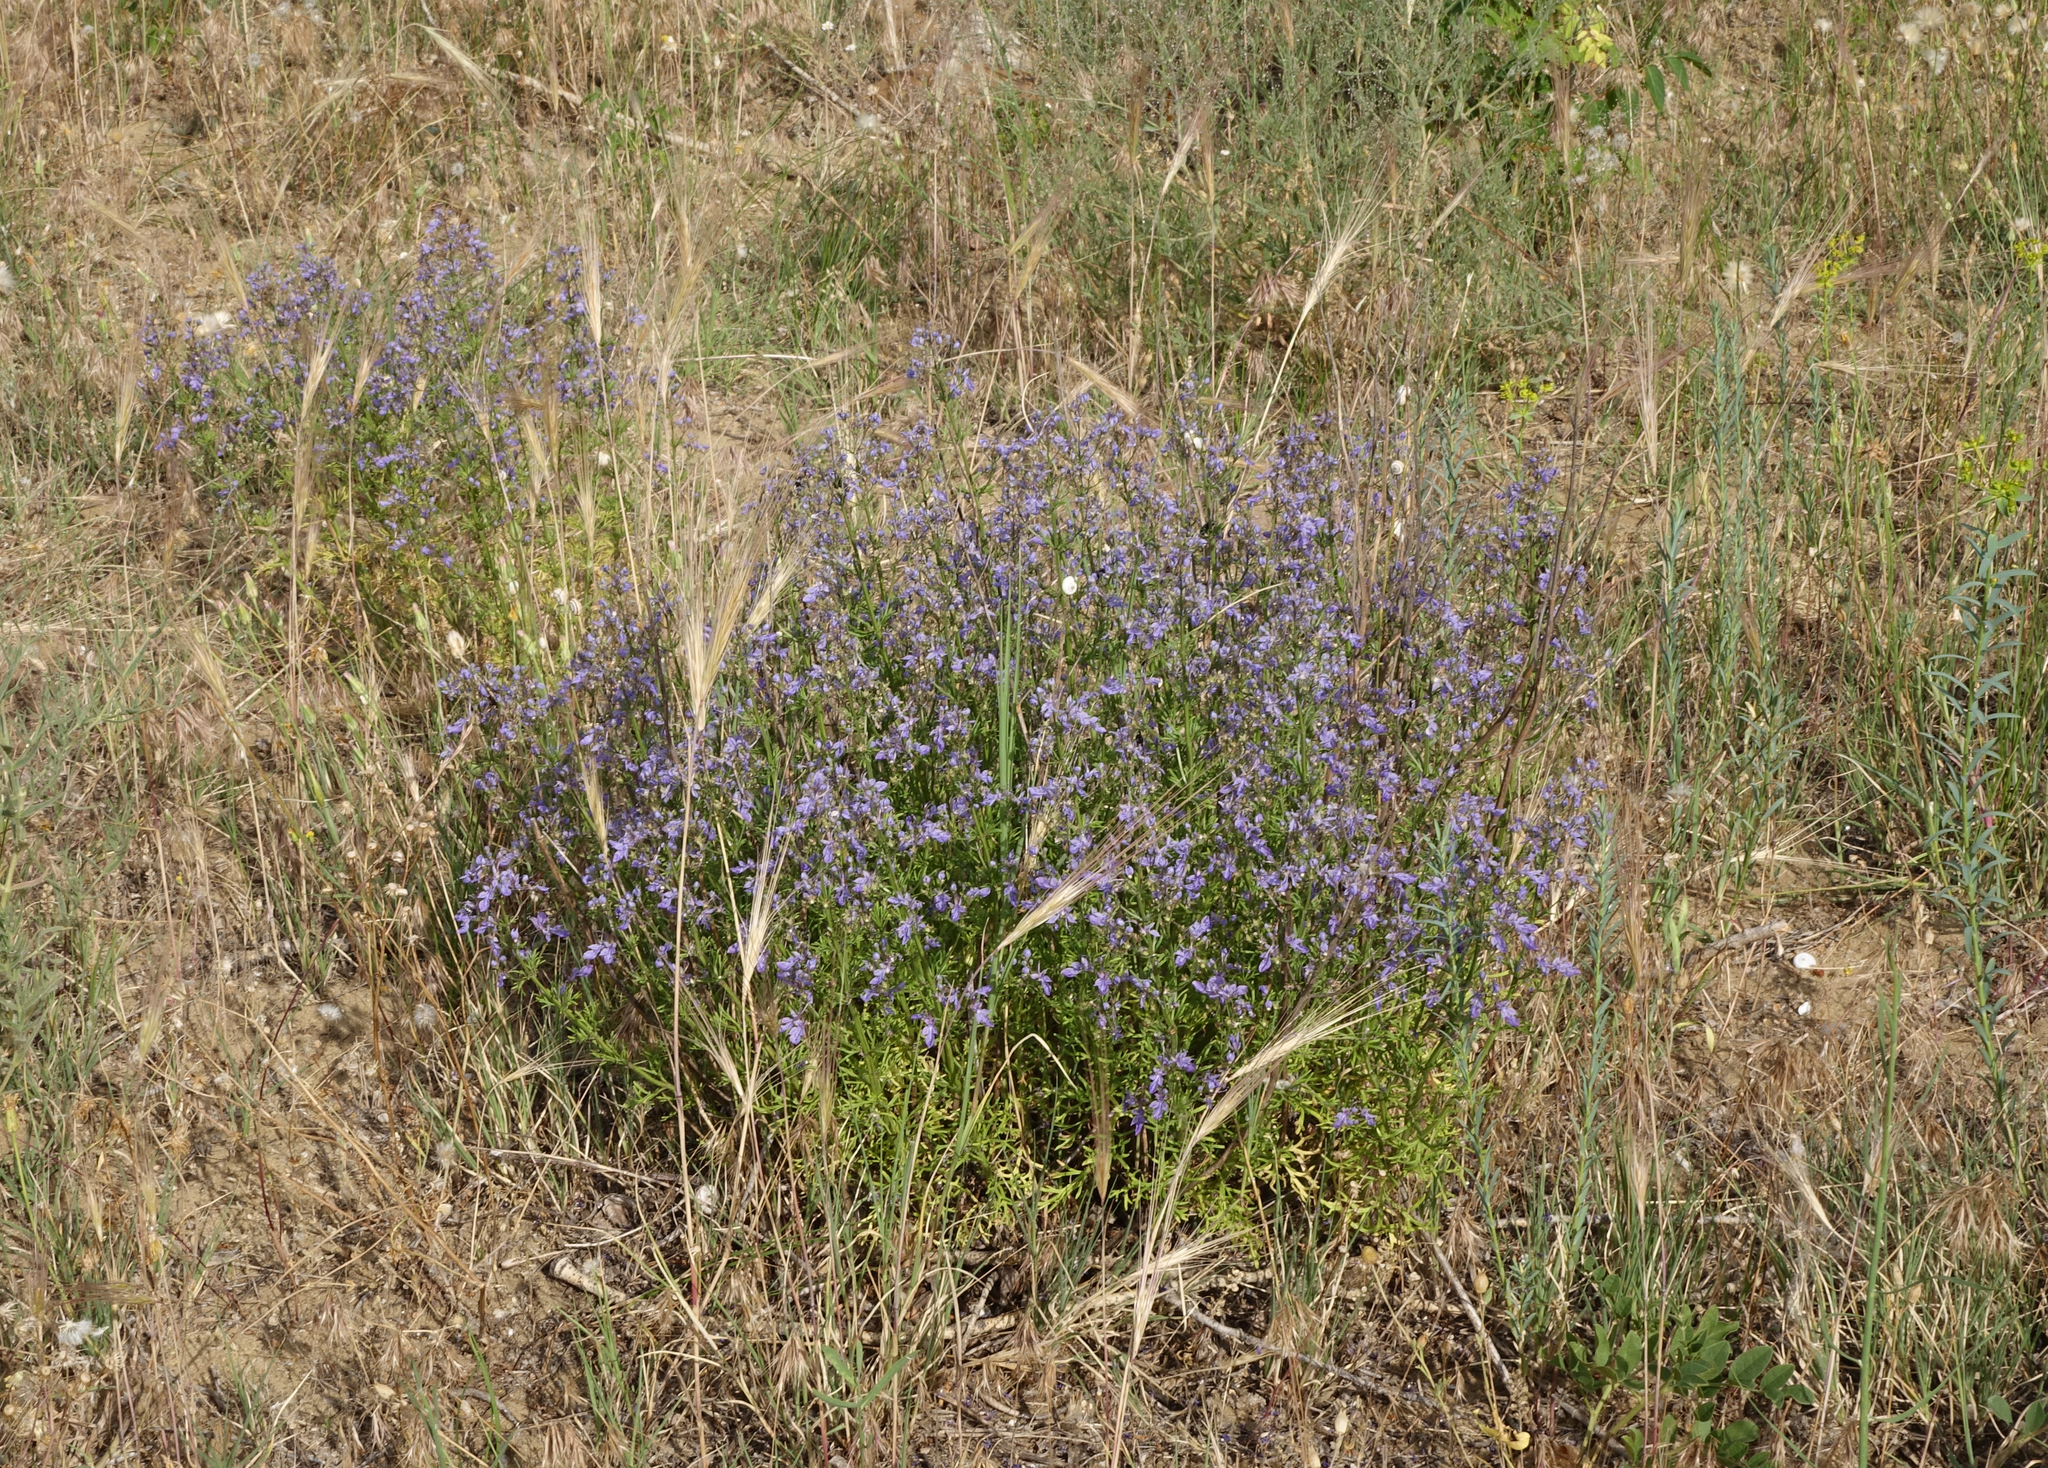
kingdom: Plantae
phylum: Tracheophyta
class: Magnoliopsida
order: Lamiales
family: Lamiaceae
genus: Teucrium
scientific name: Teucrium orientale
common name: Oriental germander
